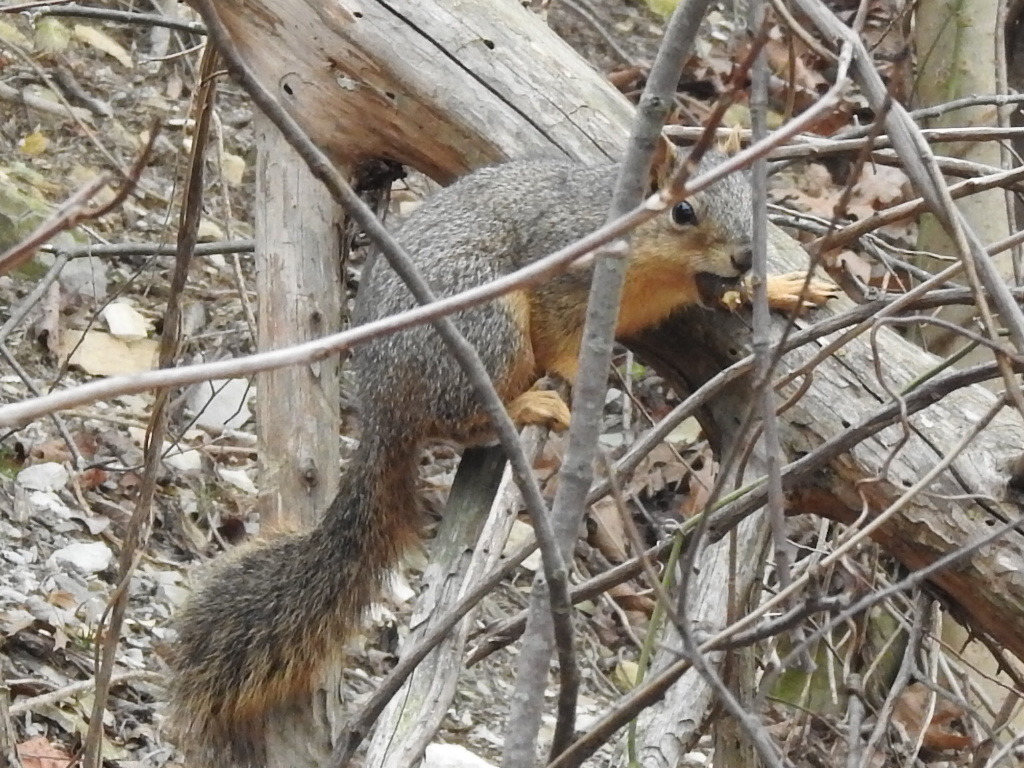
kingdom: Animalia
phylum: Chordata
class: Mammalia
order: Rodentia
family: Sciuridae
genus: Sciurus
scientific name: Sciurus niger
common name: Fox squirrel
